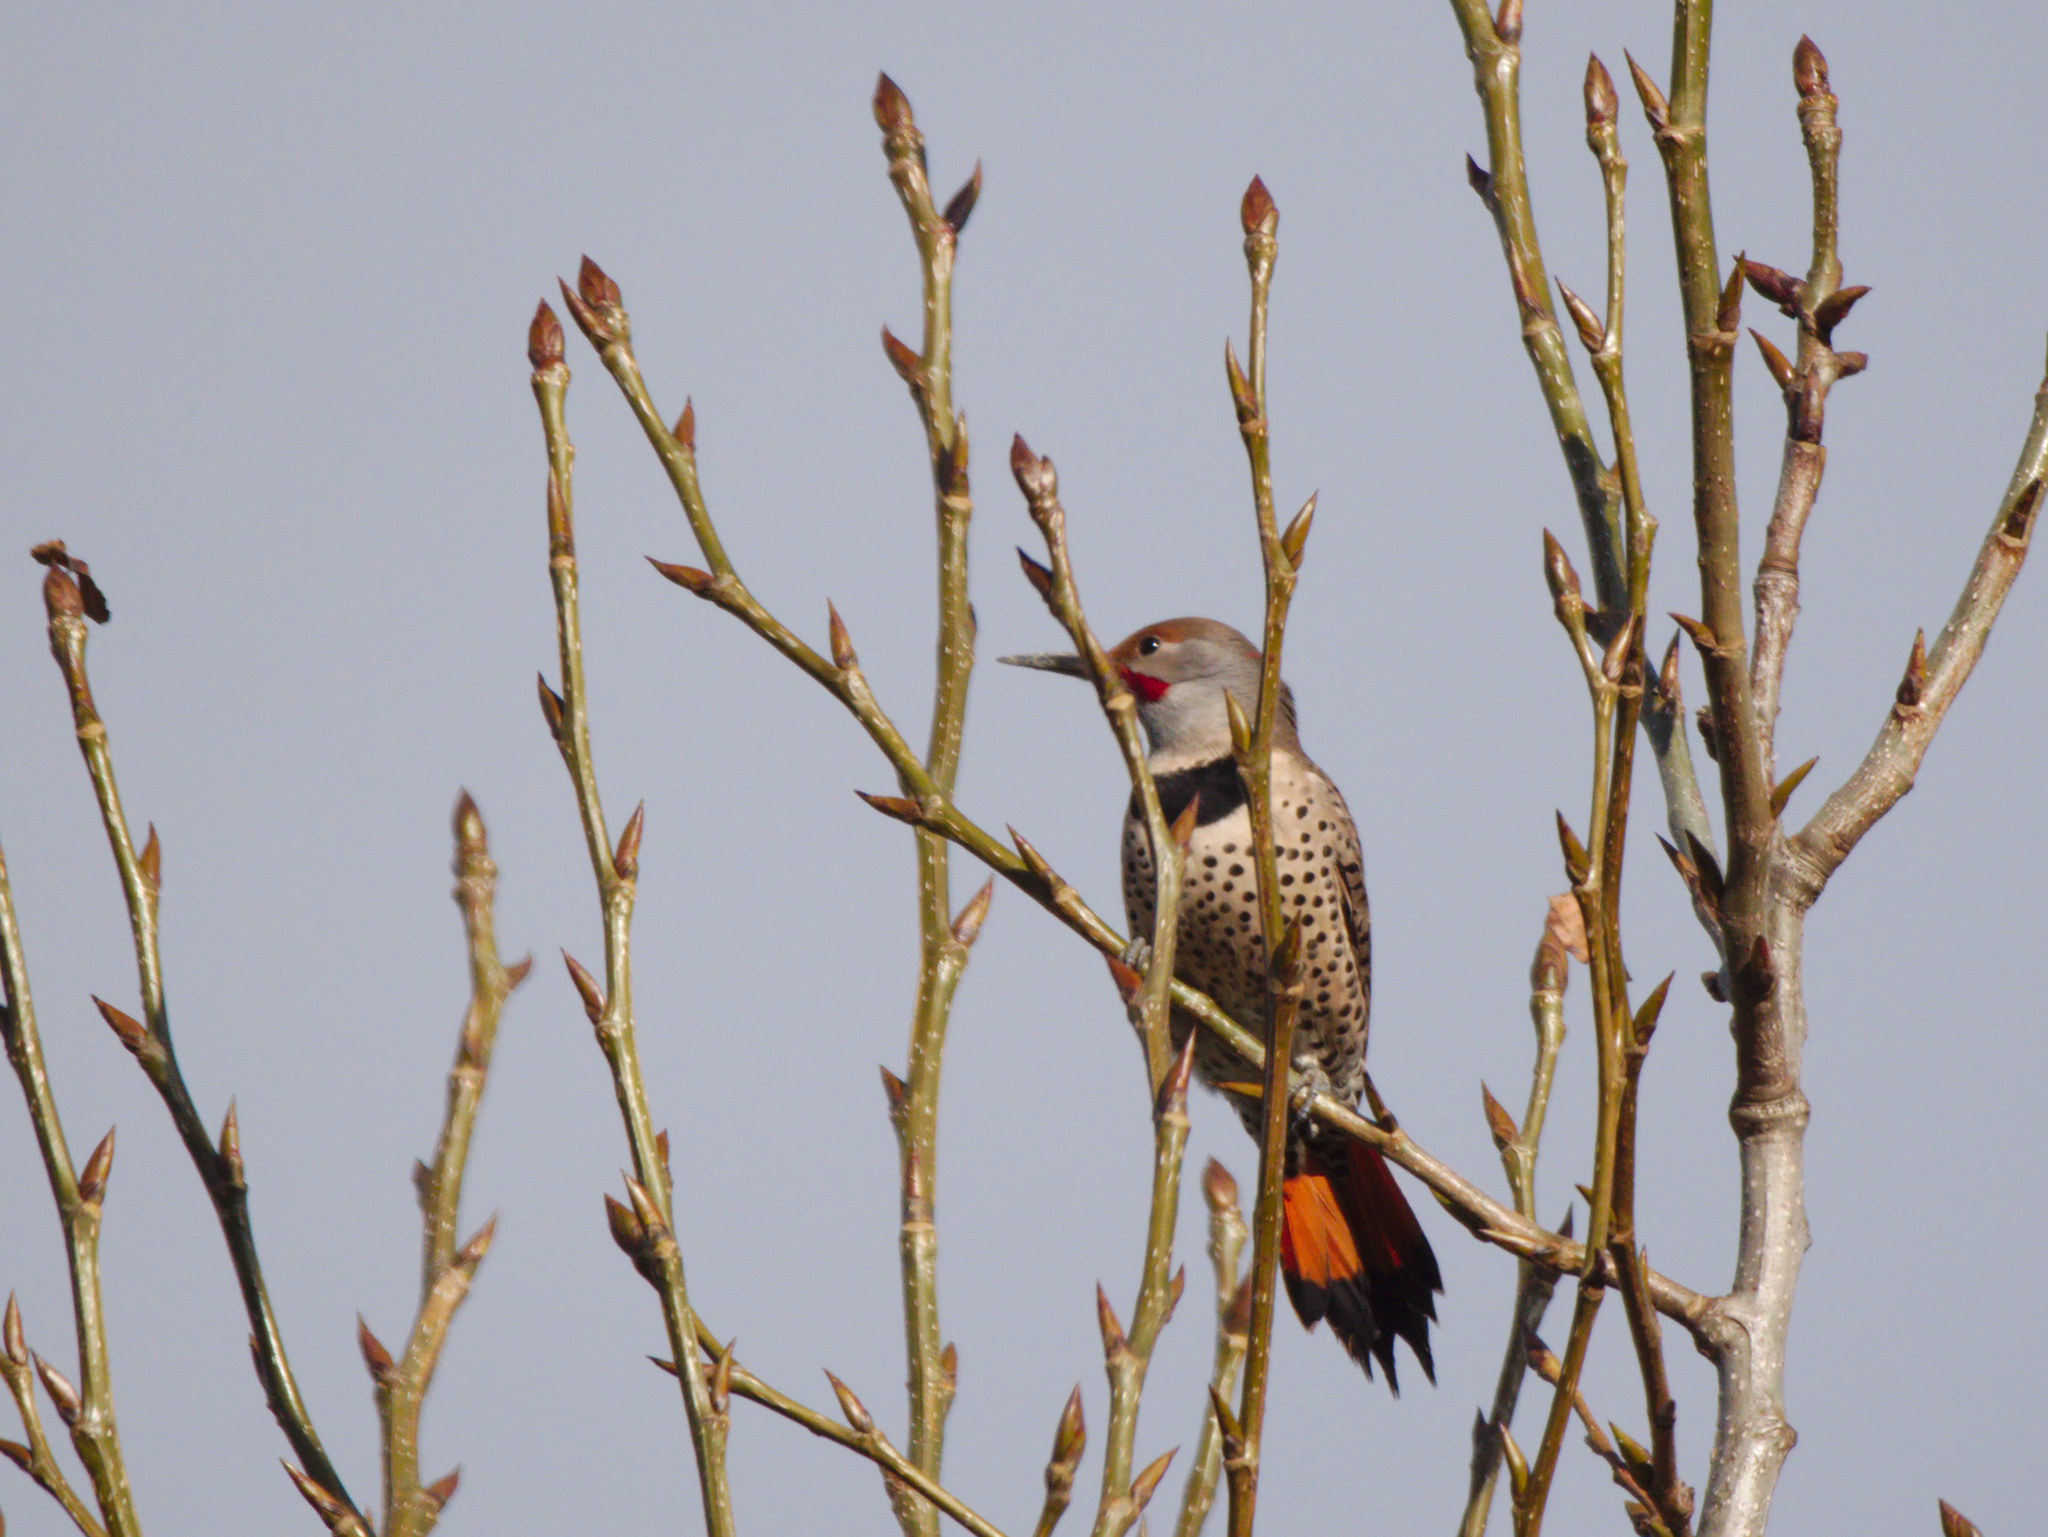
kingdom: Animalia
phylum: Chordata
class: Aves
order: Piciformes
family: Picidae
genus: Colaptes
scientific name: Colaptes auratus
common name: Northern flicker
